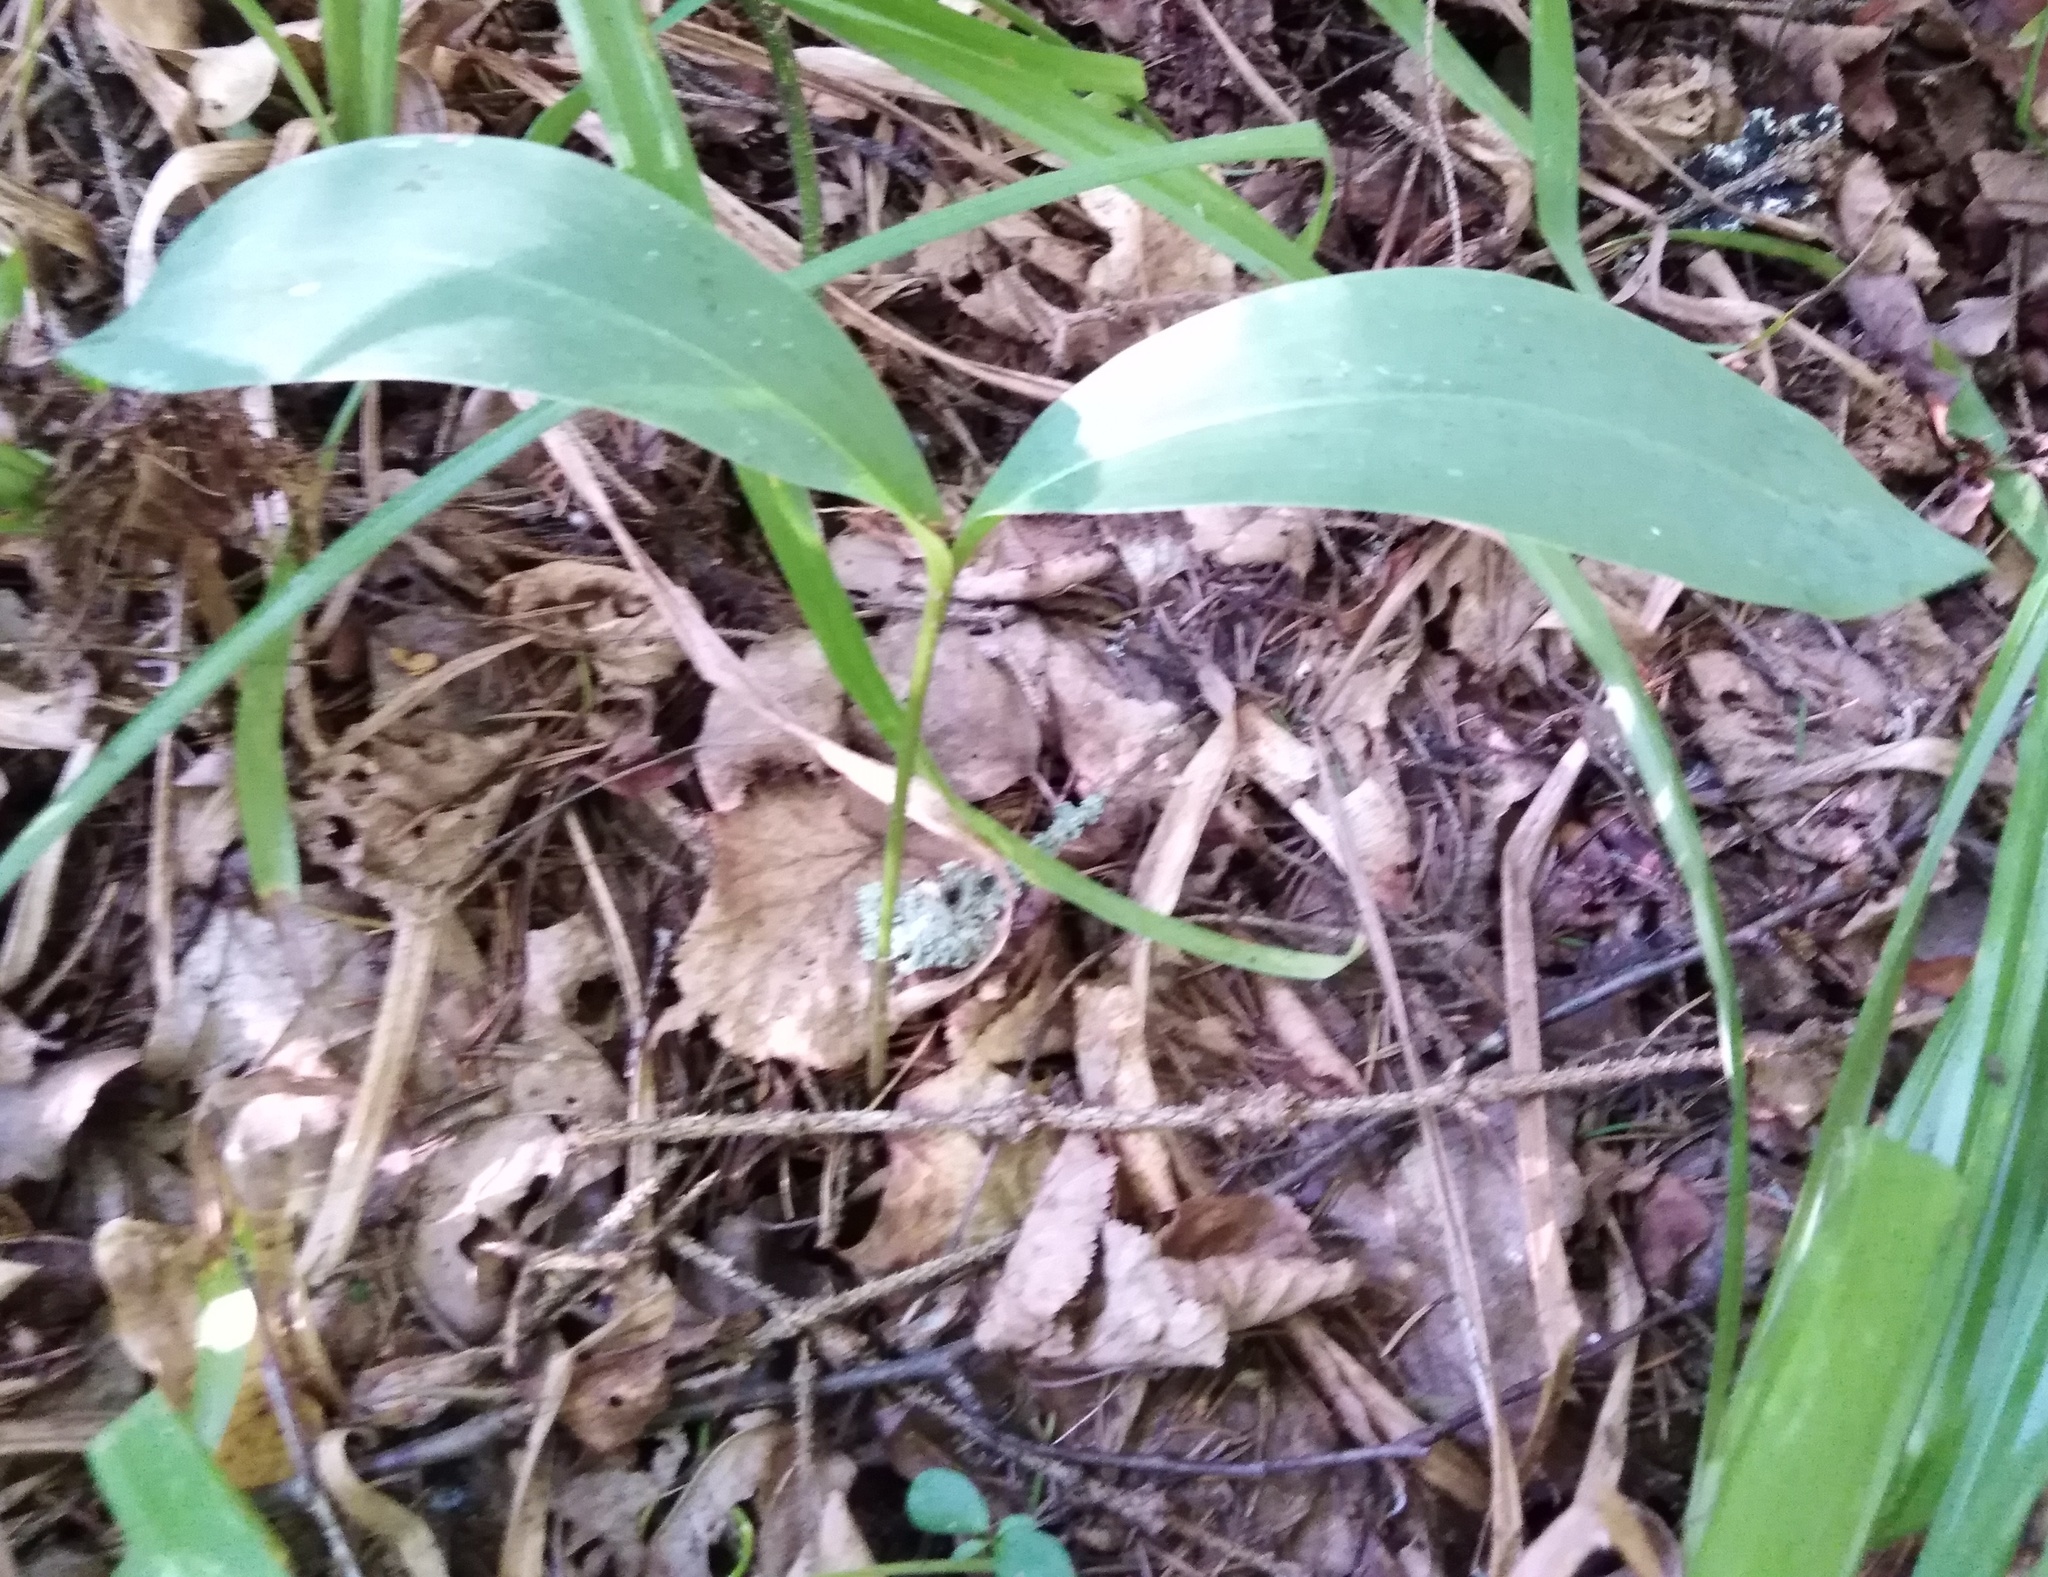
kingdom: Plantae
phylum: Tracheophyta
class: Liliopsida
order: Asparagales
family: Asparagaceae
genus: Convallaria
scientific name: Convallaria majalis
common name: Lily-of-the-valley
